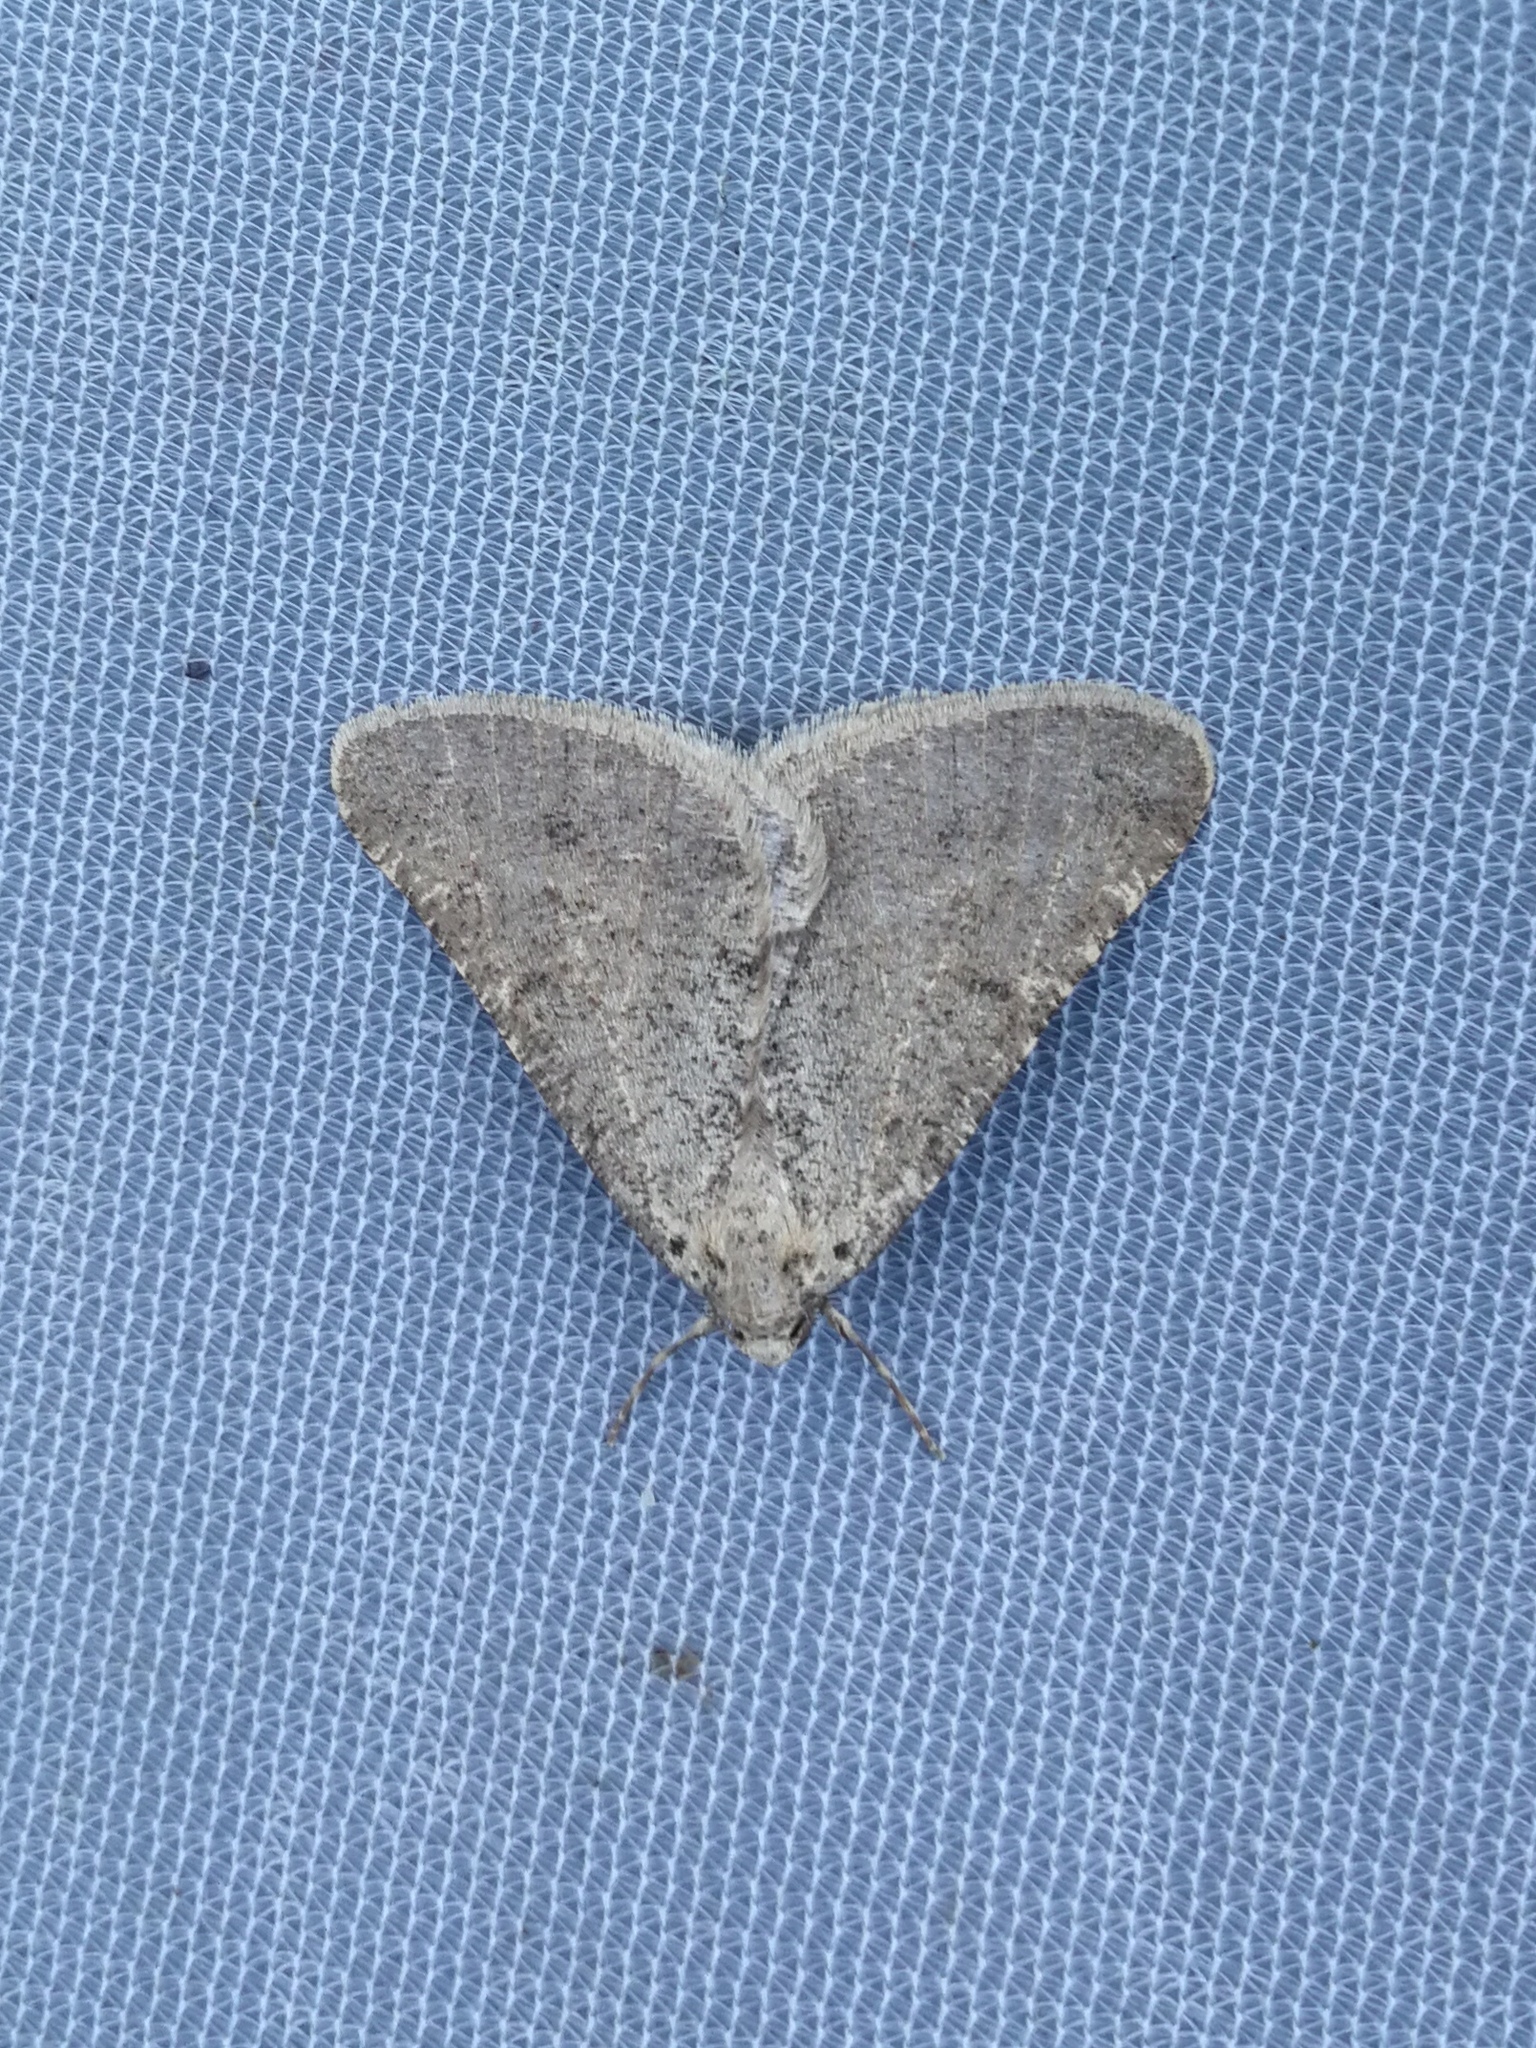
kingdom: Animalia
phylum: Arthropoda
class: Insecta
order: Lepidoptera
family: Geometridae
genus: Isturgia
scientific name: Isturgia miniosaria
